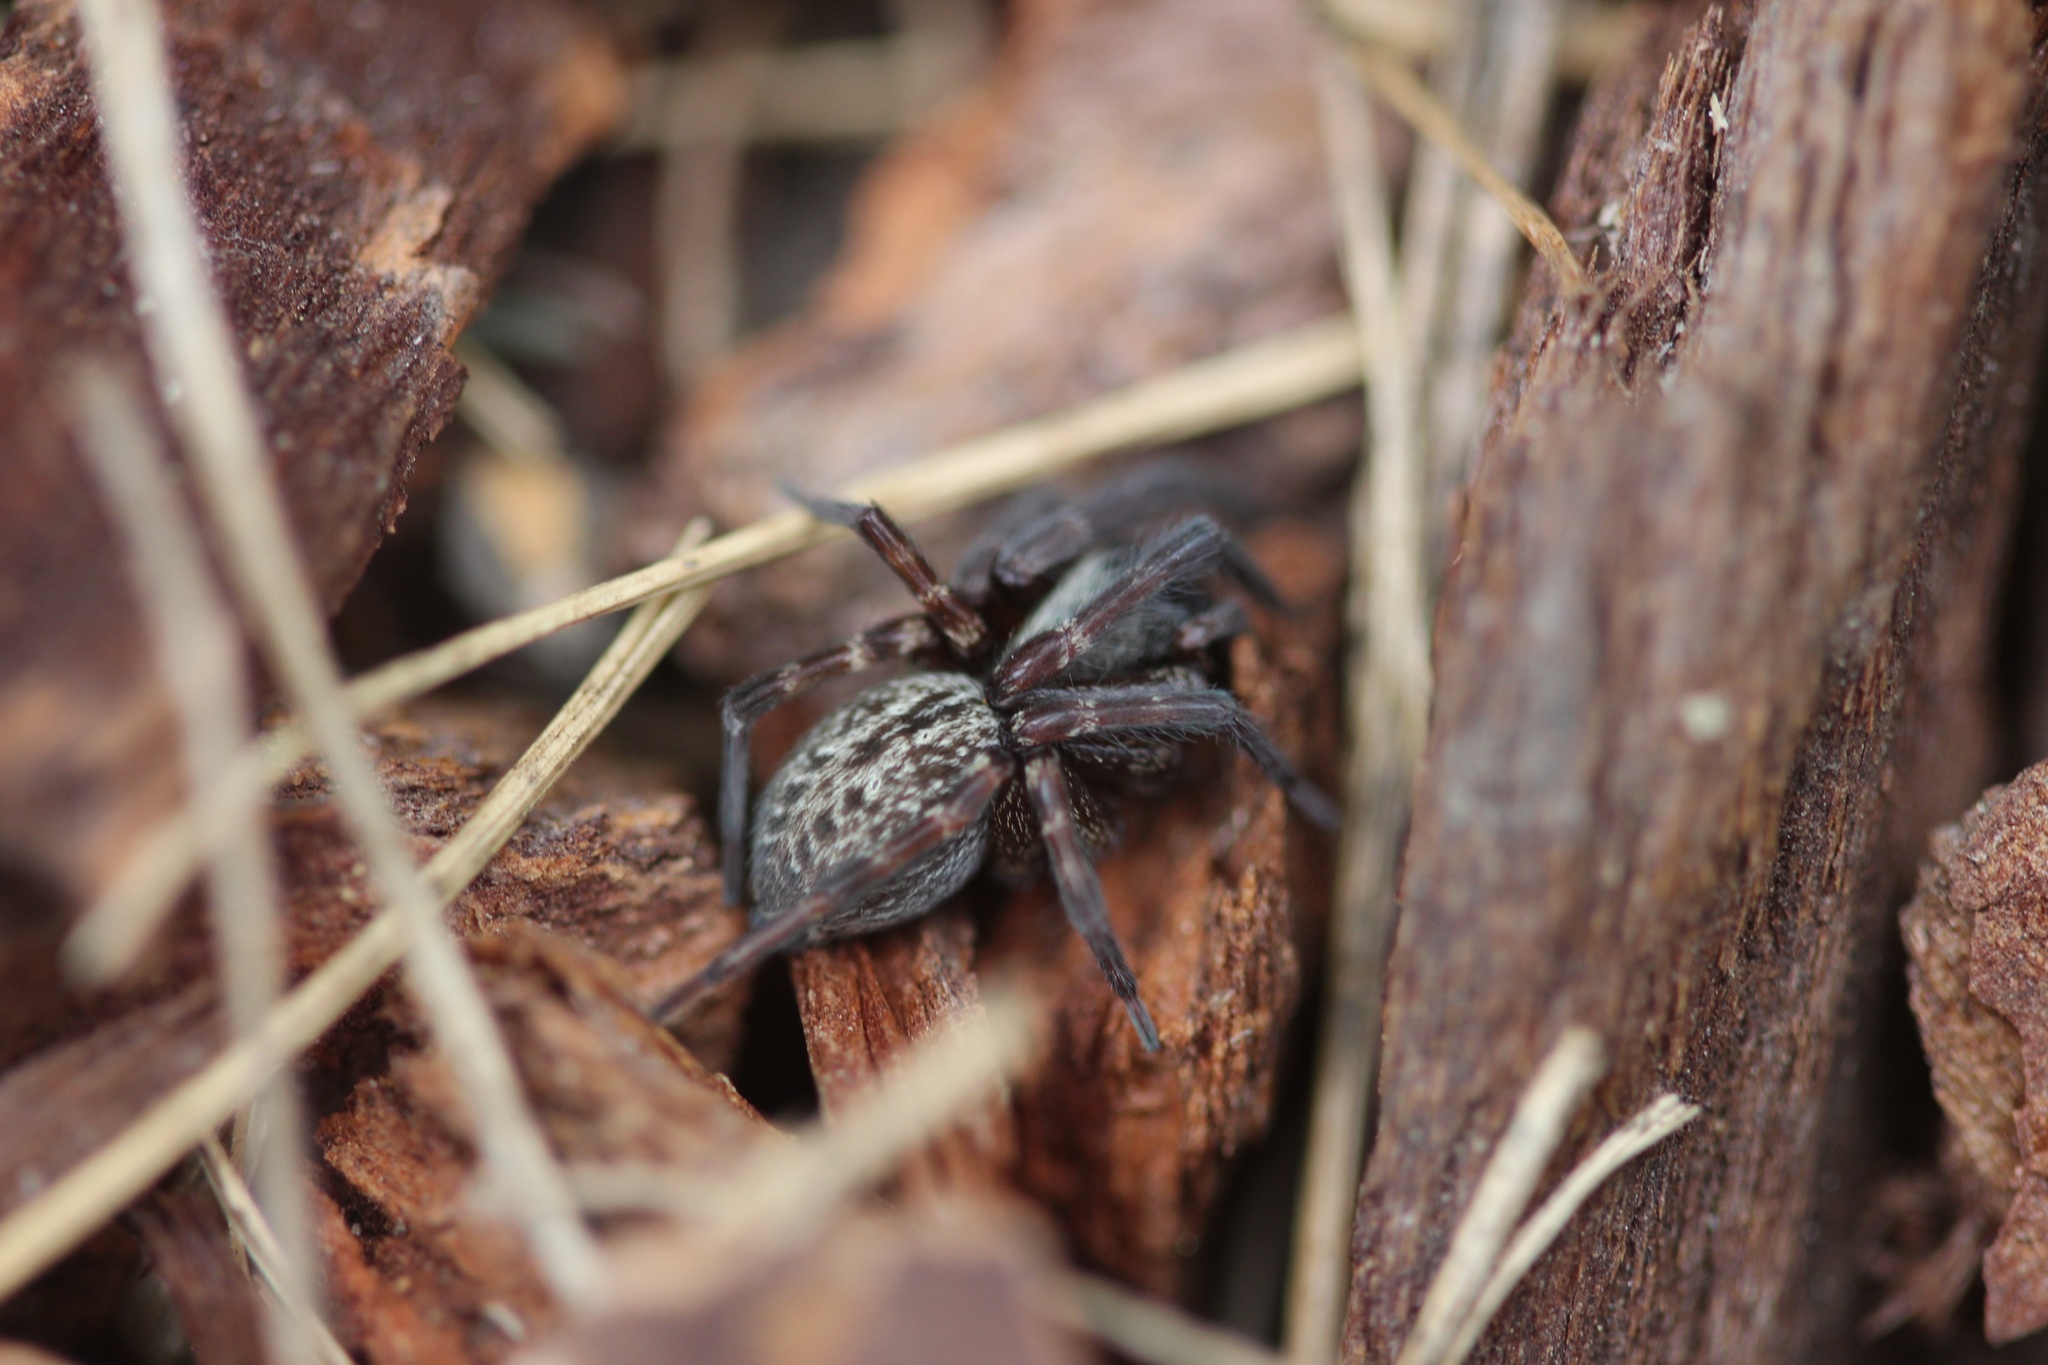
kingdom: Animalia
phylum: Arthropoda
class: Arachnida
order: Araneae
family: Desidae
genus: Badumna
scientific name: Badumna longinqua
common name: Gray house spider
